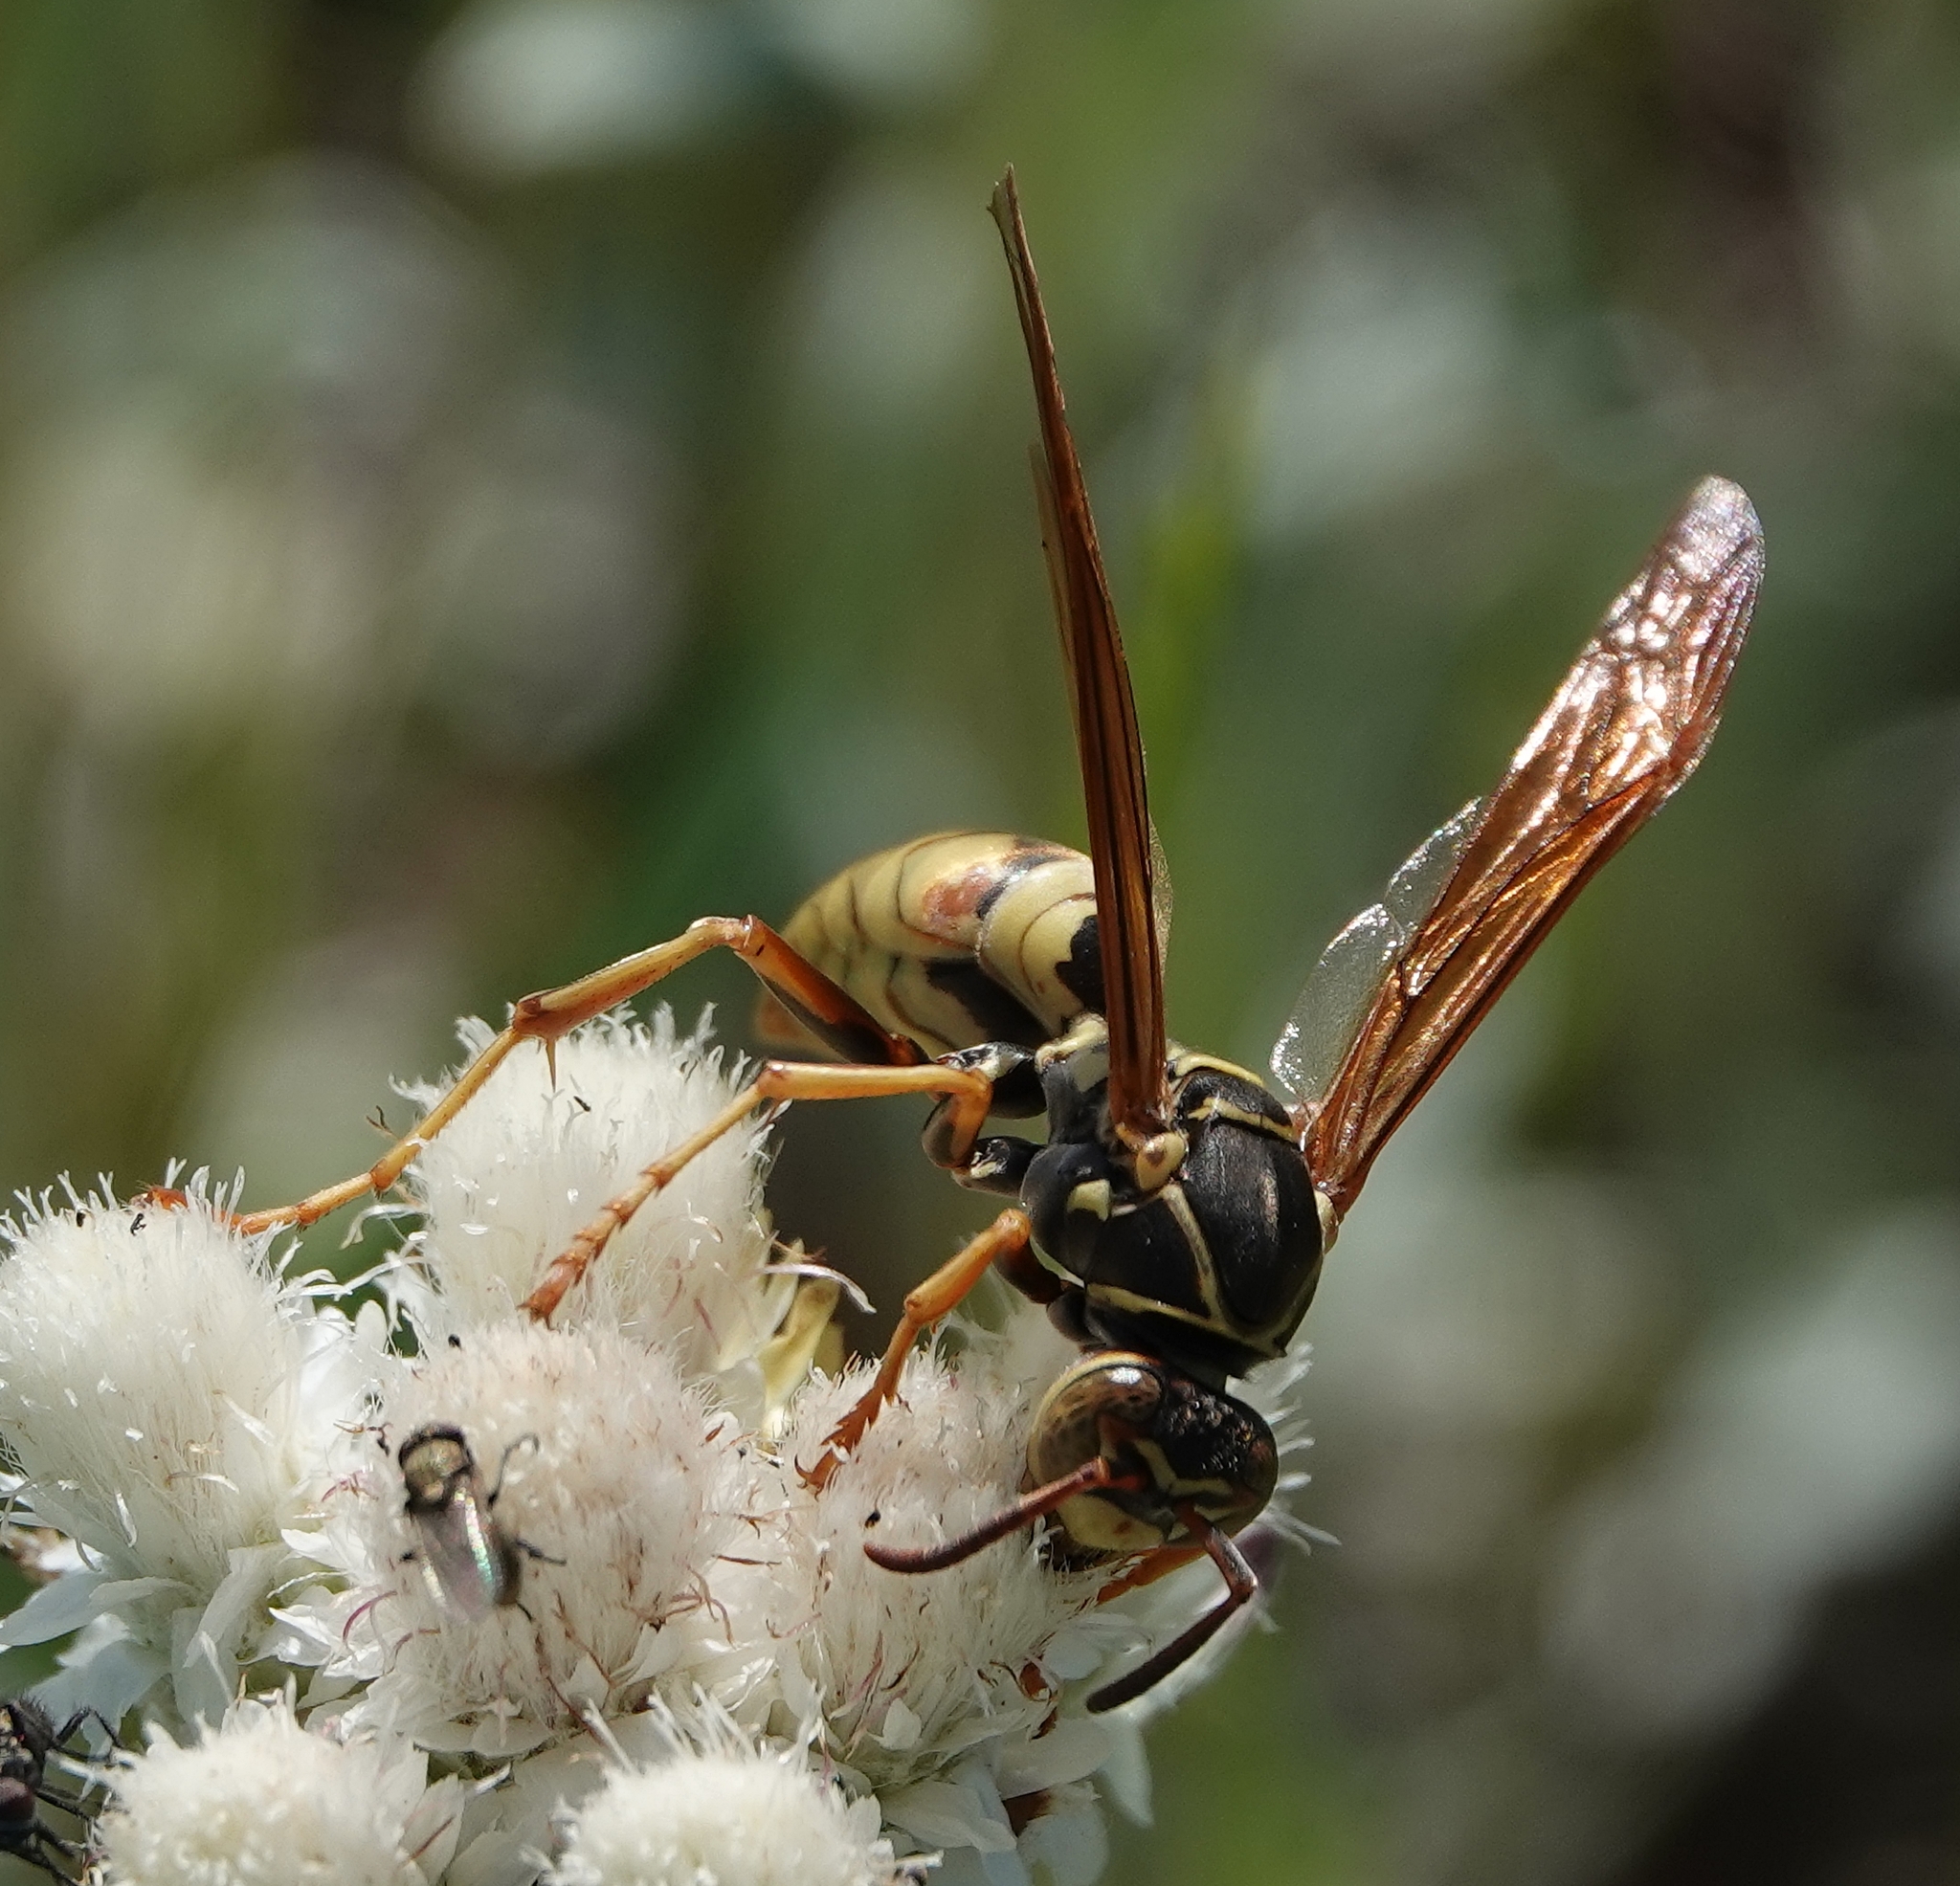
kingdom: Animalia
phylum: Arthropoda
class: Insecta
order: Hymenoptera
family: Eumenidae
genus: Polistes
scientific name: Polistes aurifer
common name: Paper wasp
